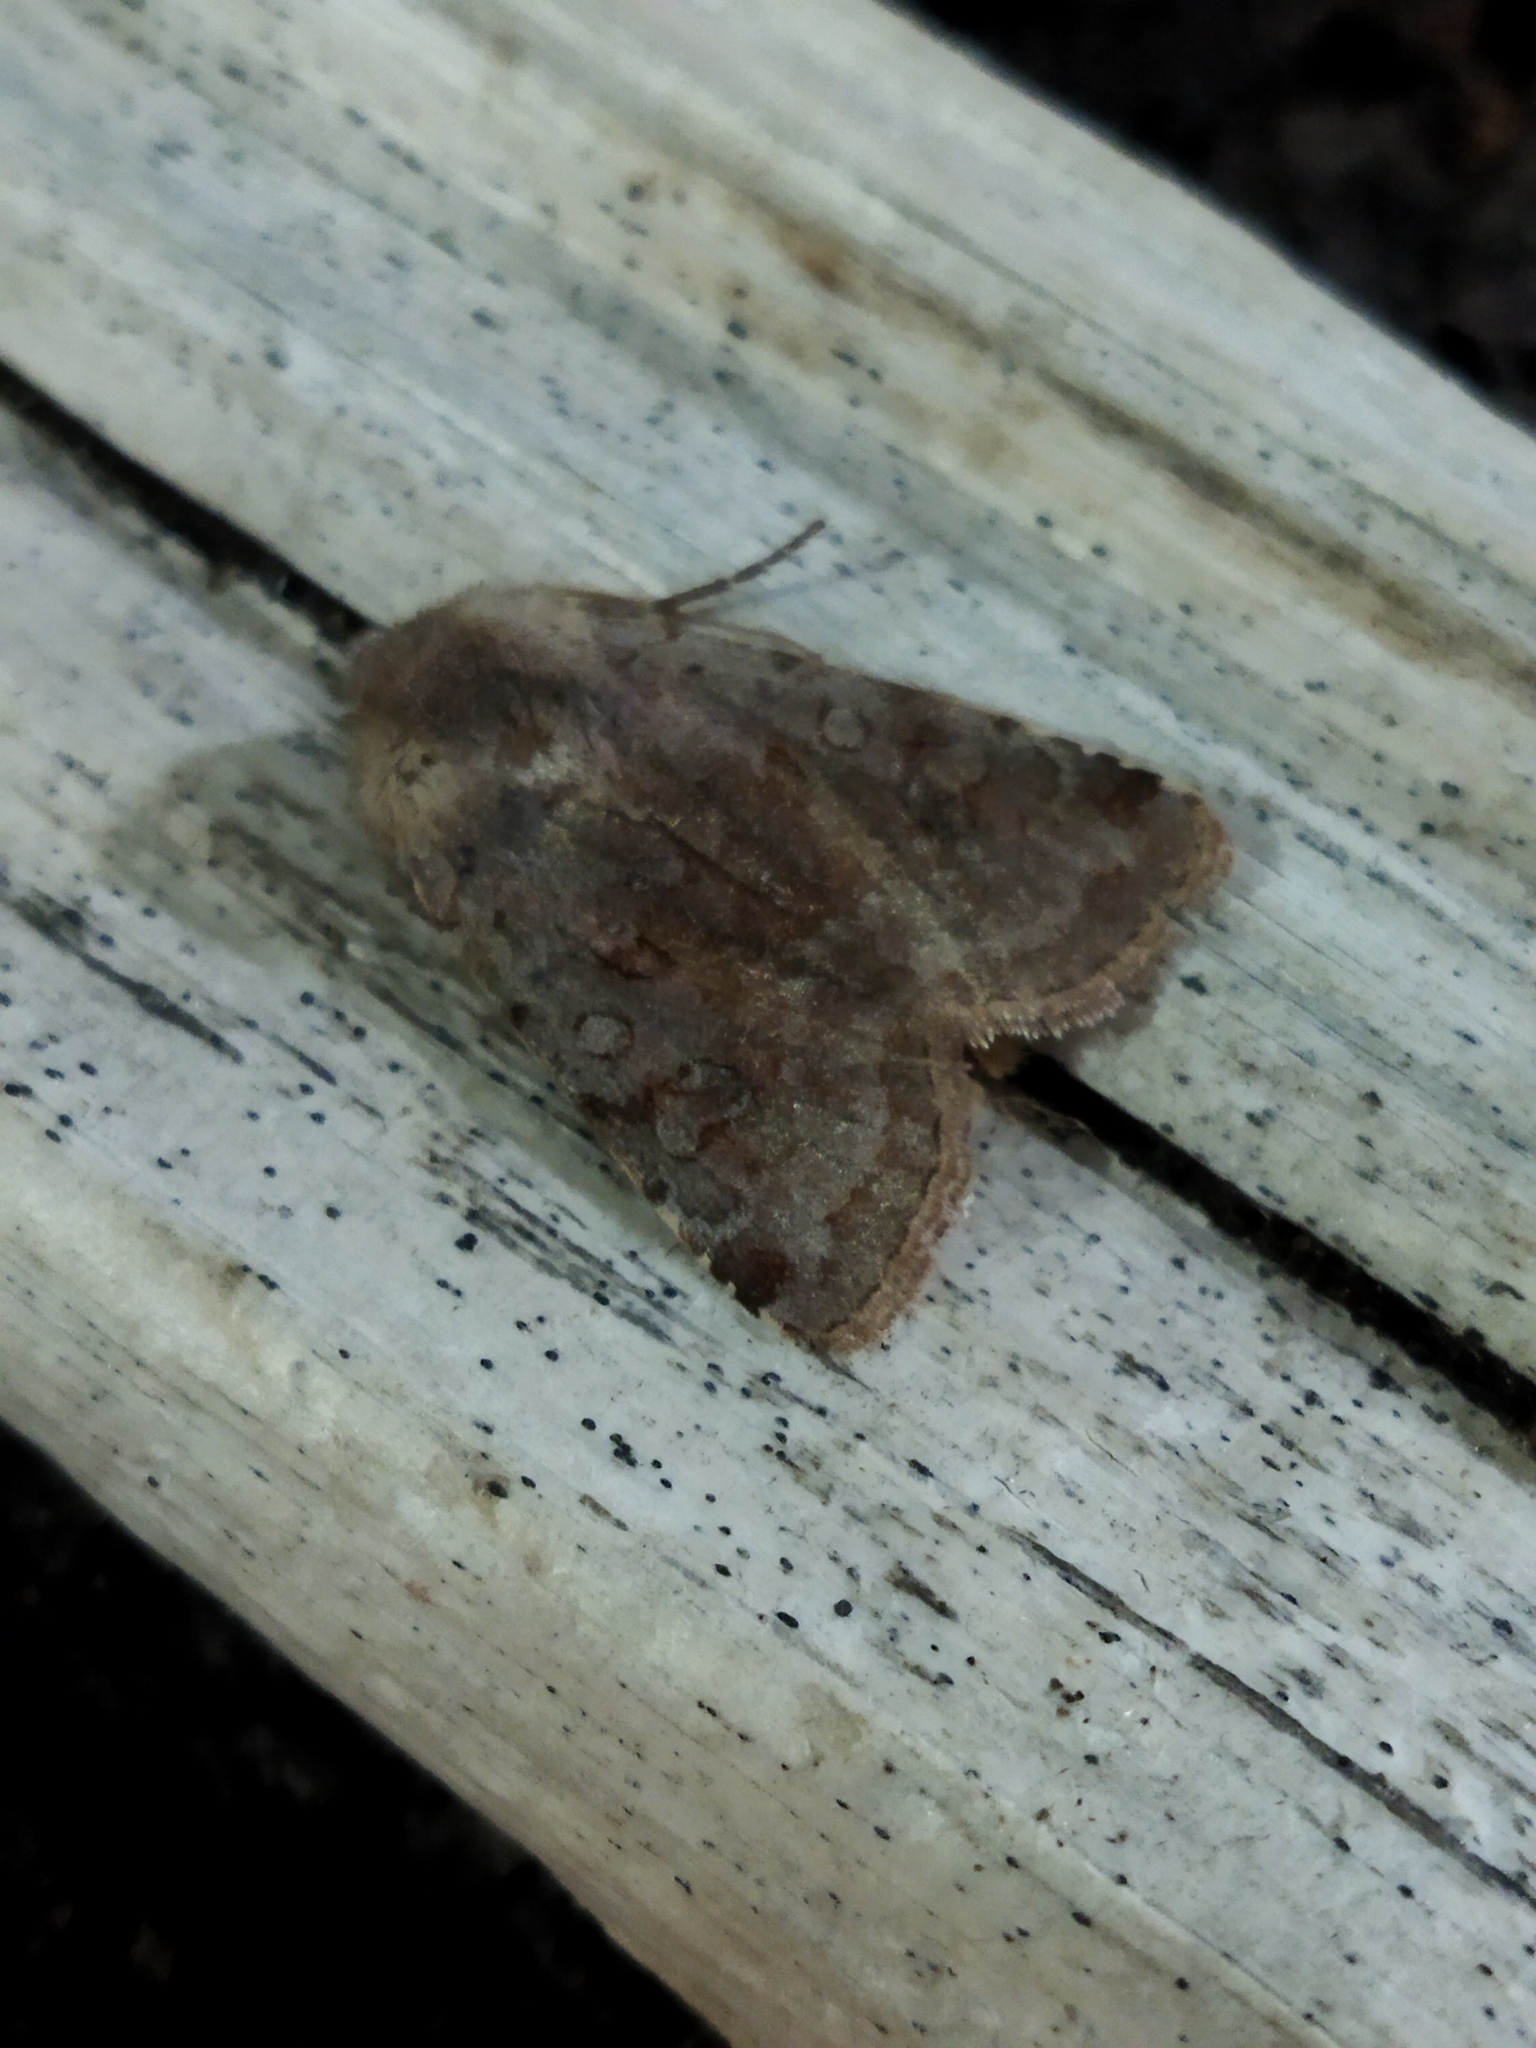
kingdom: Animalia
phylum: Arthropoda
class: Insecta
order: Lepidoptera
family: Noctuidae
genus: Cerastis
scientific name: Cerastis rubricosa
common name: Red chestnut
